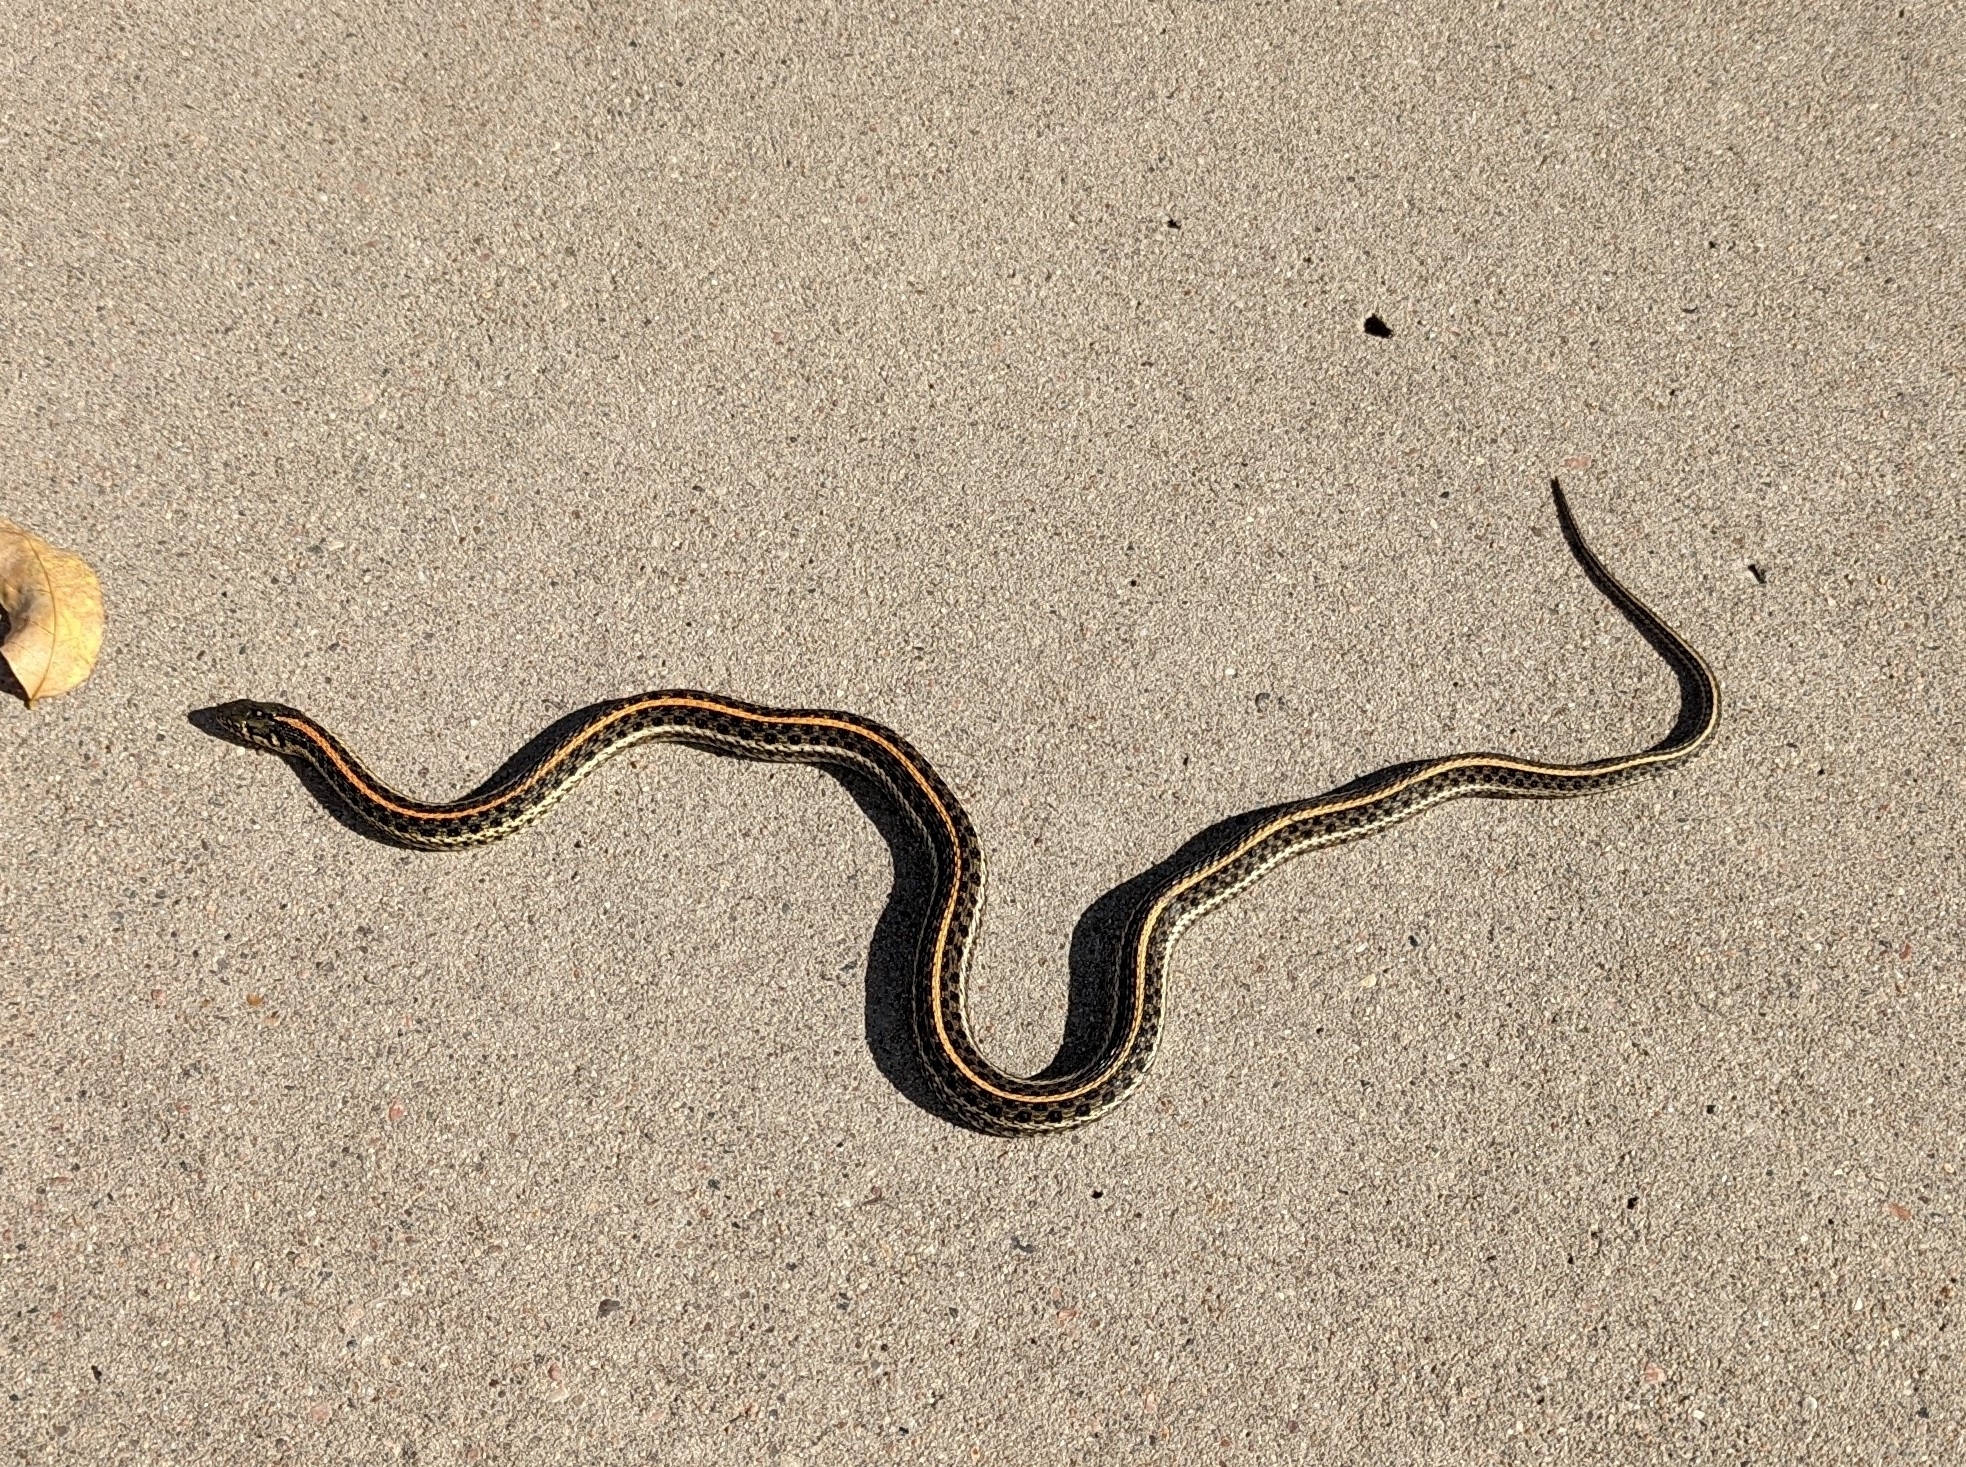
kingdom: Animalia
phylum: Chordata
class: Squamata
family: Colubridae
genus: Thamnophis
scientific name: Thamnophis radix
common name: Plains garter snake
